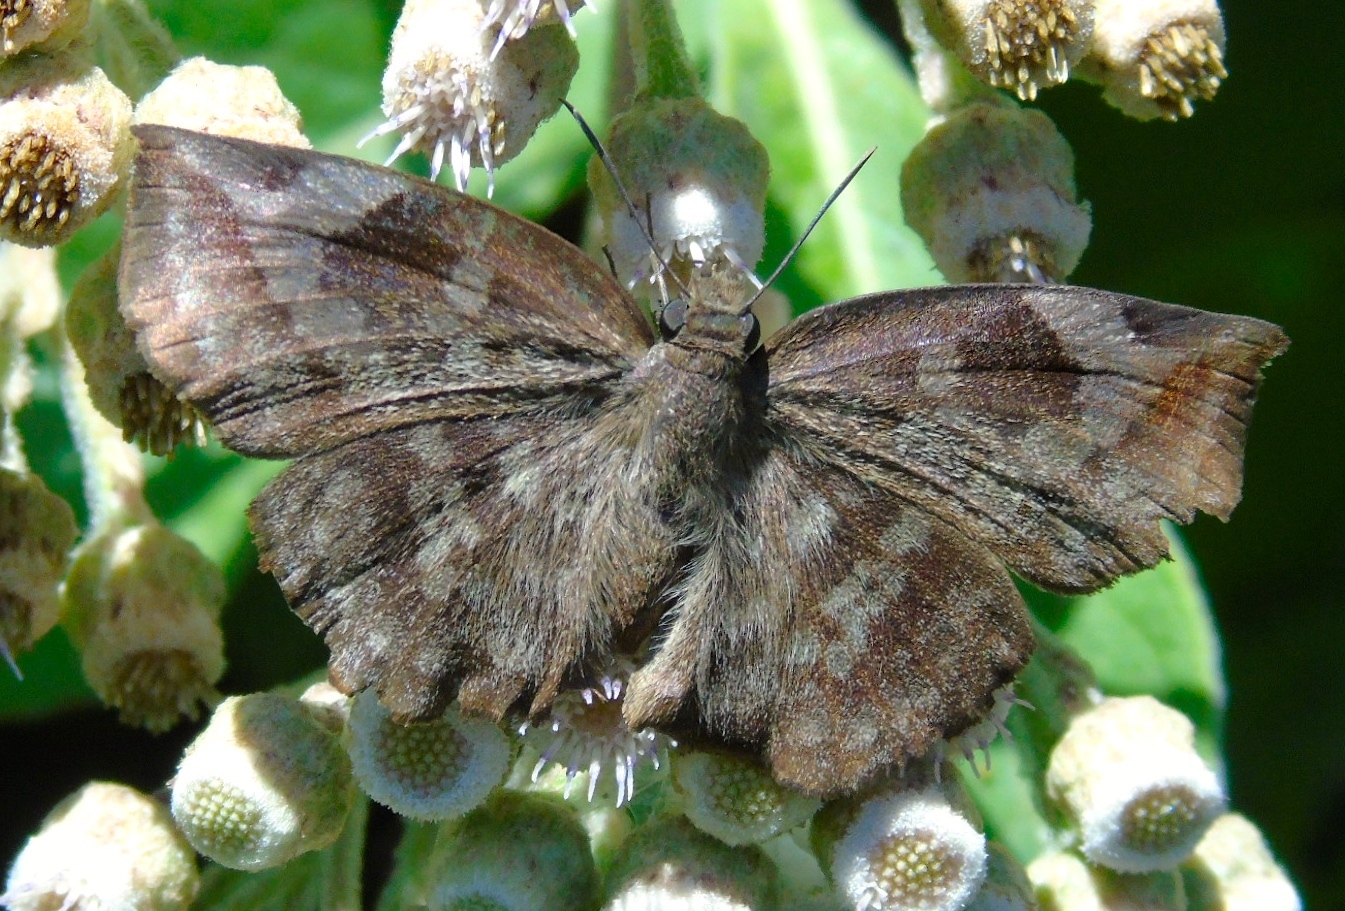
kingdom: Animalia
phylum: Arthropoda
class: Insecta
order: Lepidoptera
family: Hesperiidae
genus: Achlyodes
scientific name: Achlyodes thraso
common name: Sickle-winged skipper
